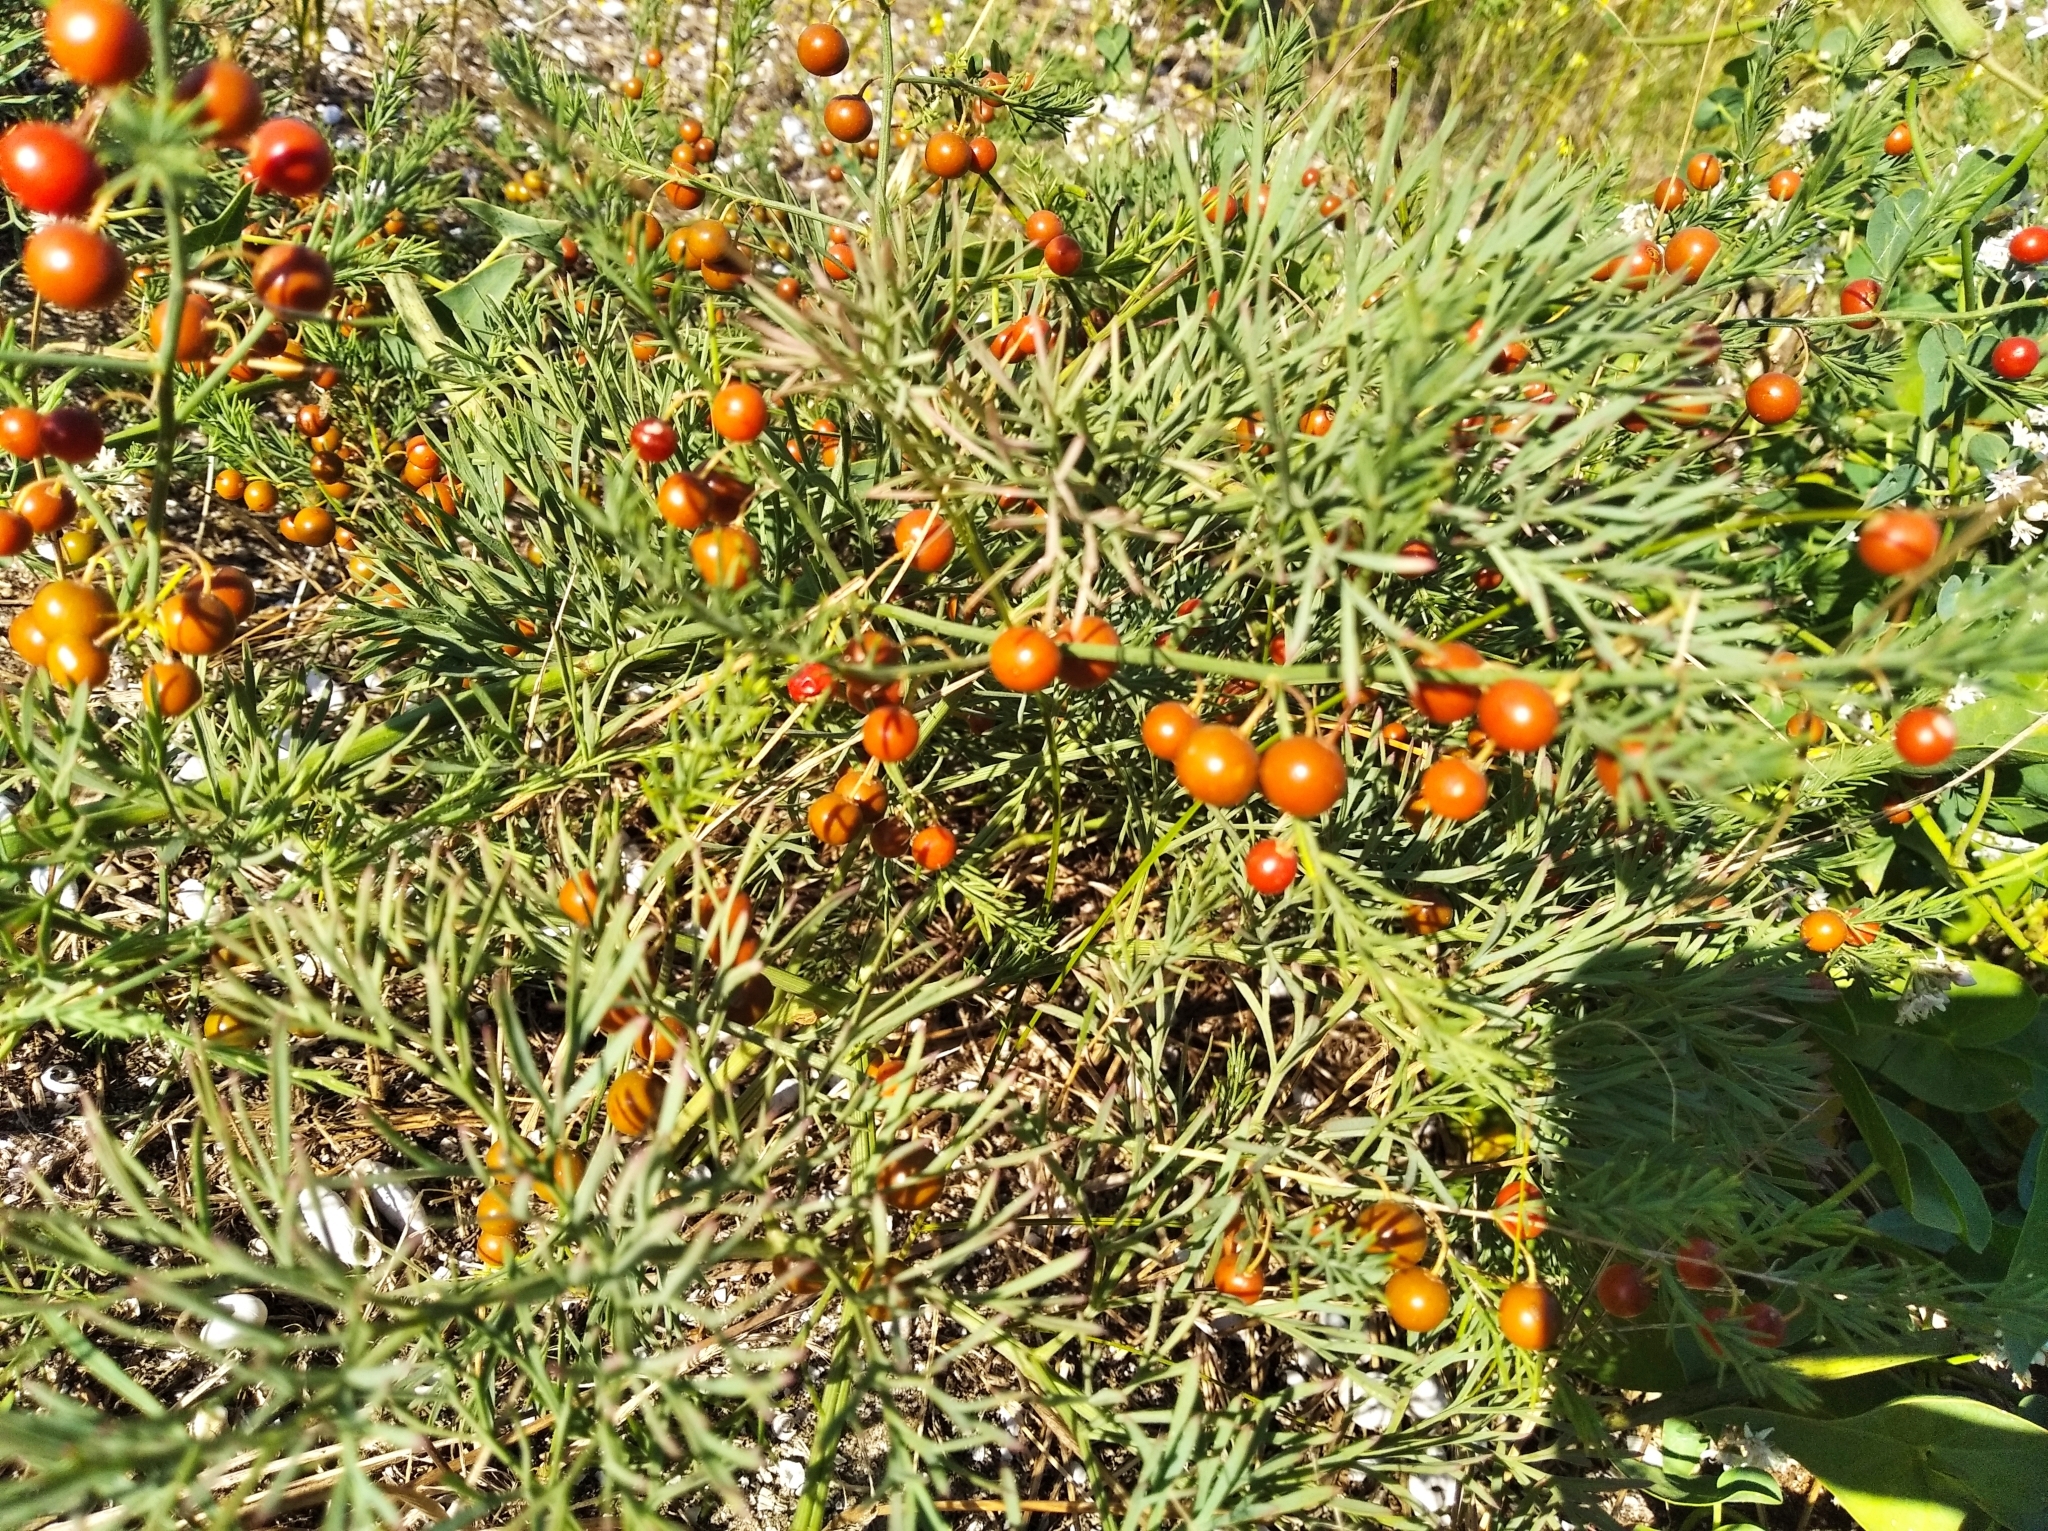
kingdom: Plantae
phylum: Tracheophyta
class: Liliopsida
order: Asparagales
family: Asparagaceae
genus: Asparagus
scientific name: Asparagus pallasii
